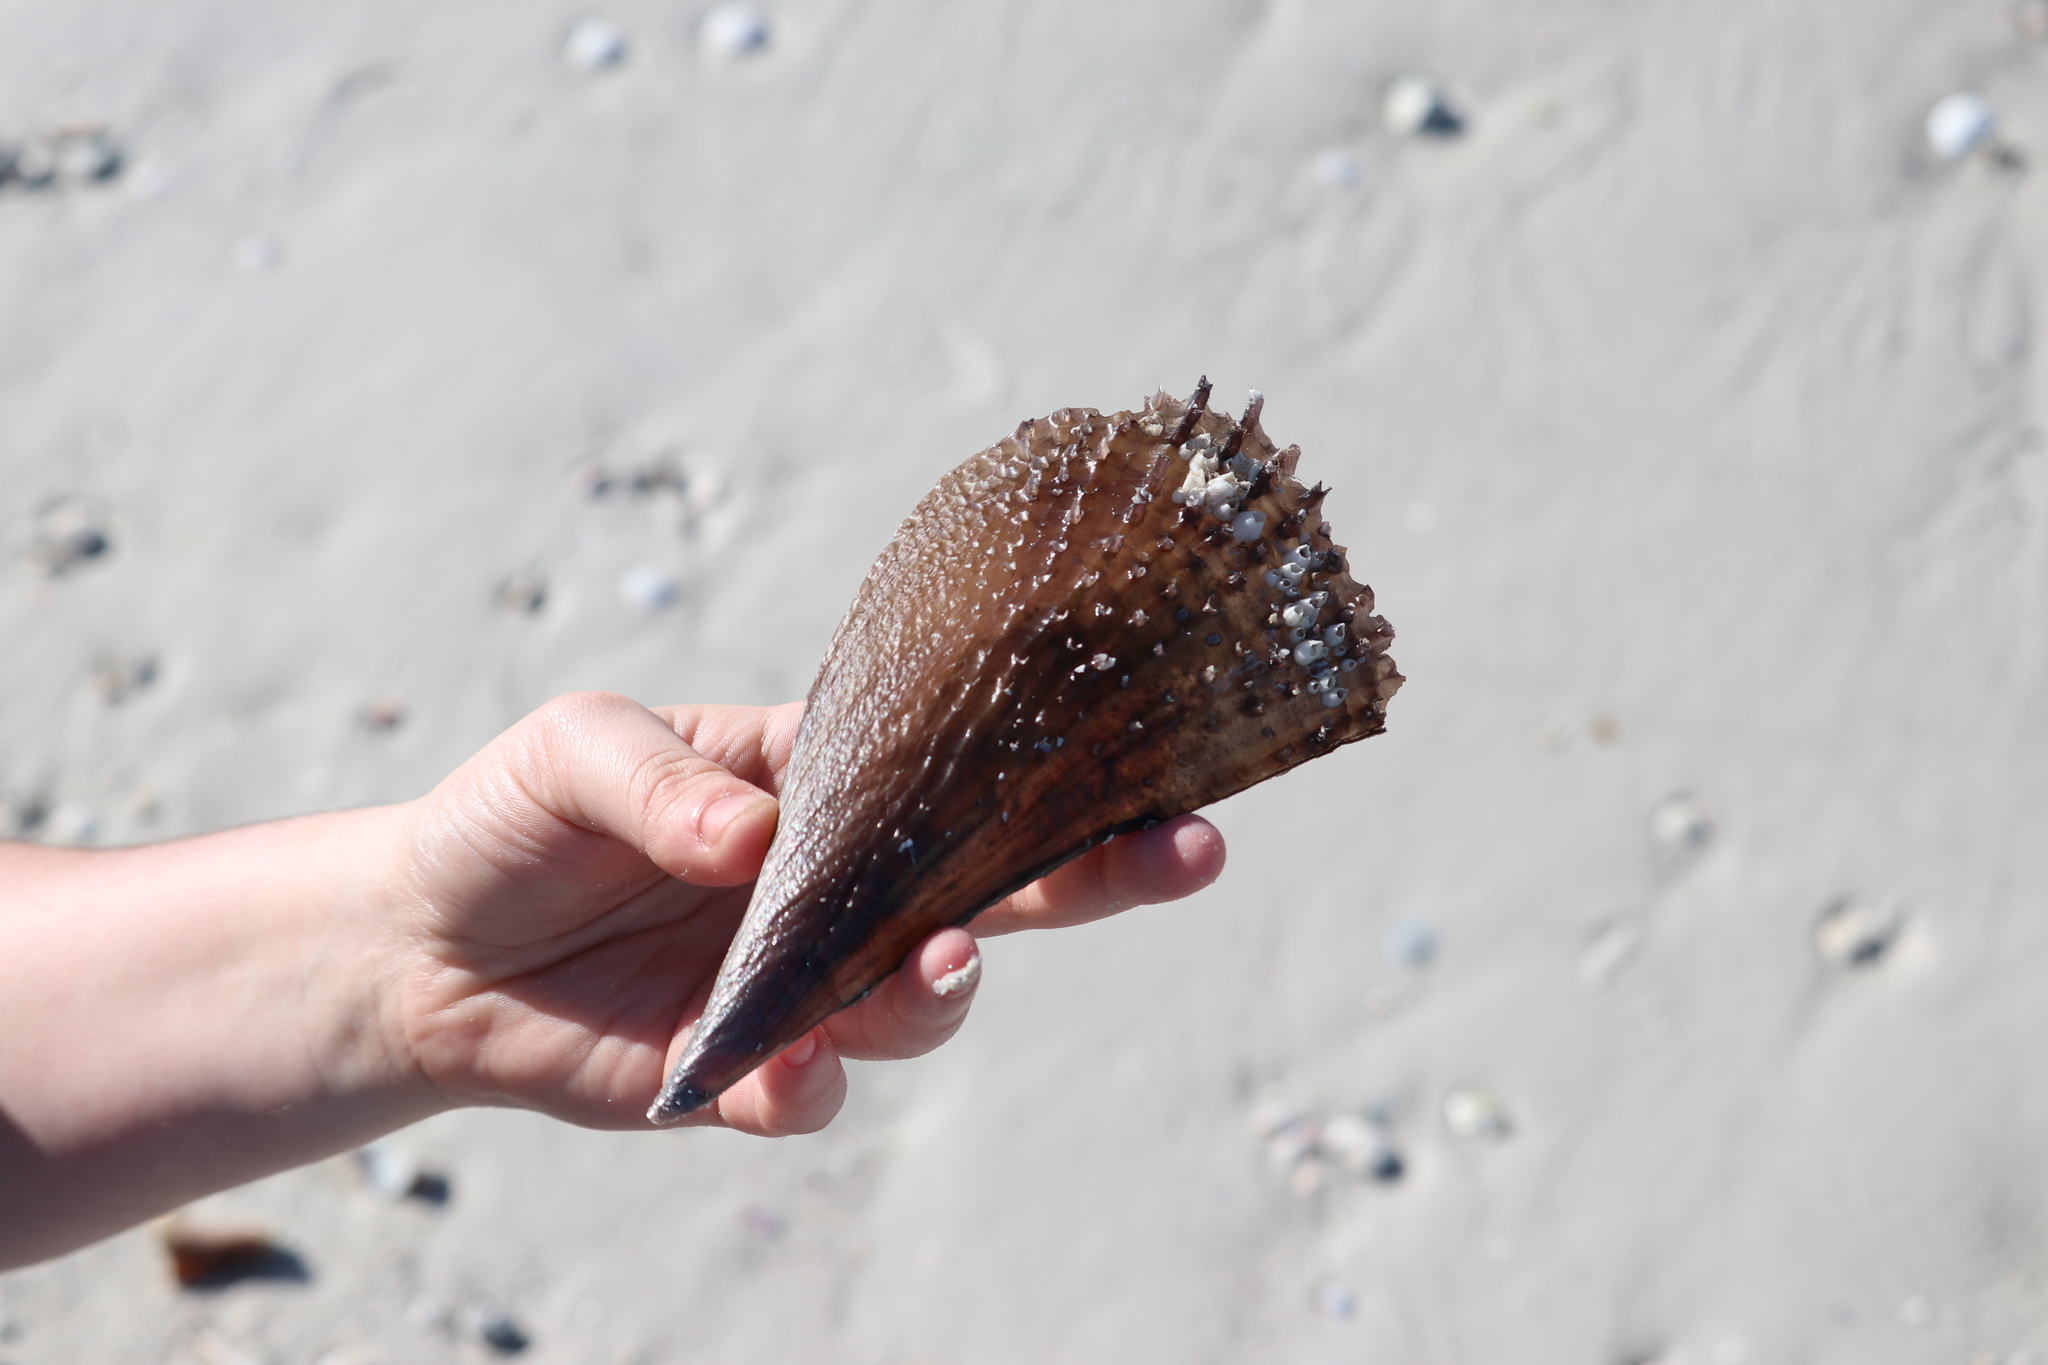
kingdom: Animalia
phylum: Mollusca
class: Bivalvia
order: Ostreida
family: Pinnidae
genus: Atrina
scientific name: Atrina rigida
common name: Stiff penshell
